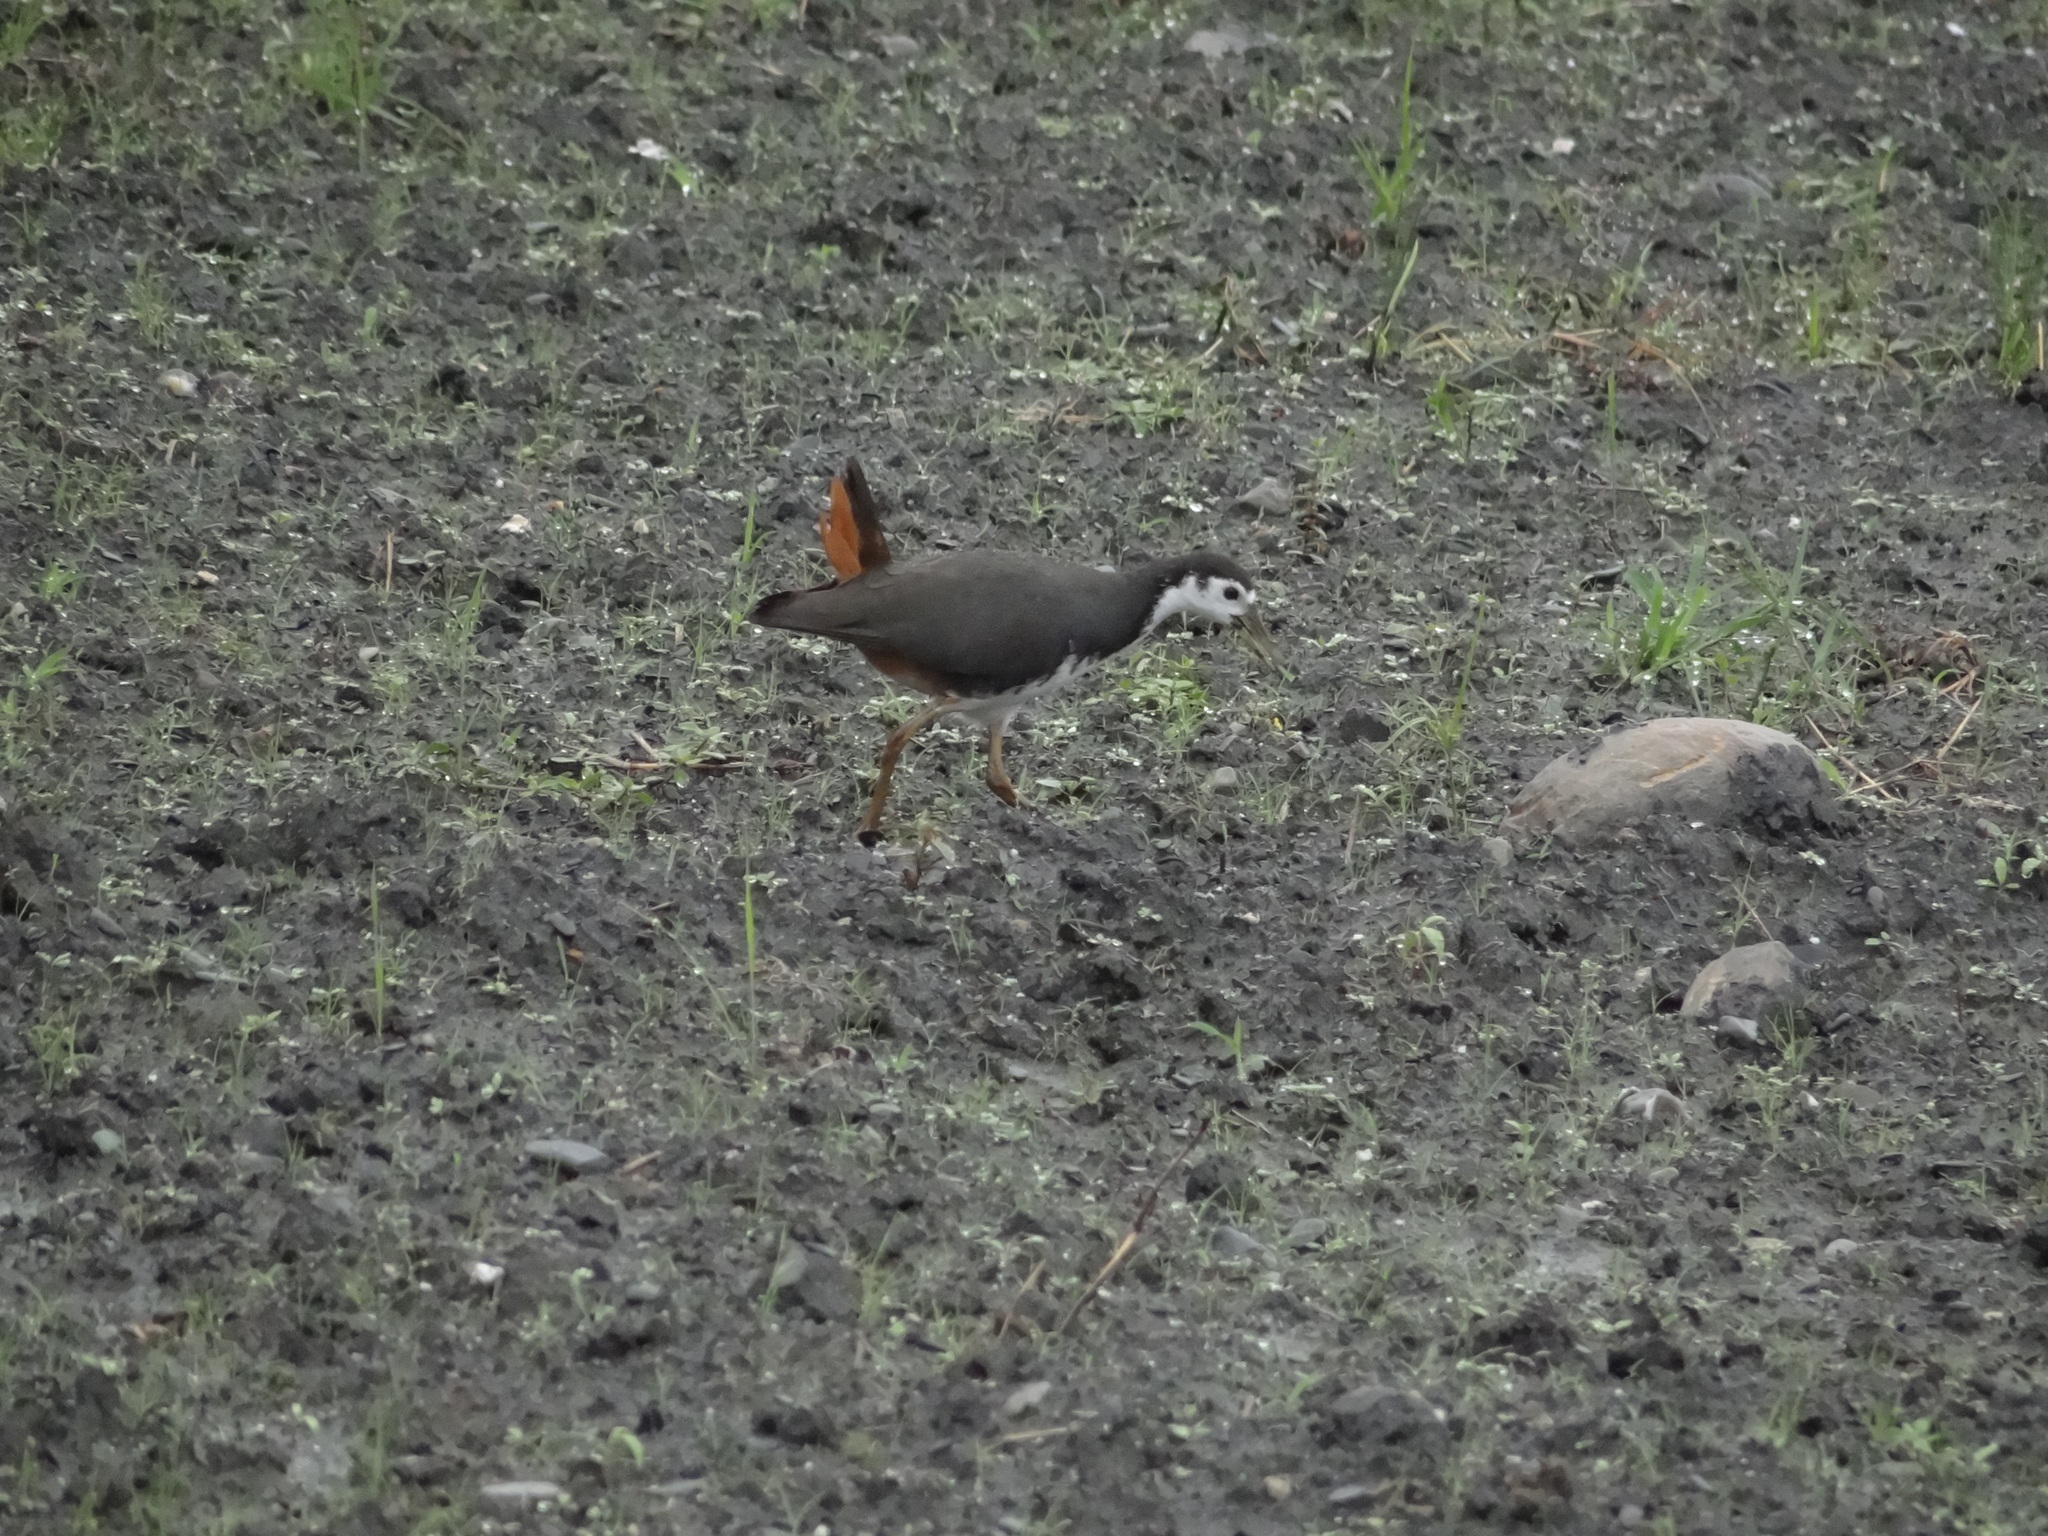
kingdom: Animalia
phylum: Chordata
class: Aves
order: Gruiformes
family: Rallidae
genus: Amaurornis
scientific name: Amaurornis phoenicurus
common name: White-breasted waterhen
